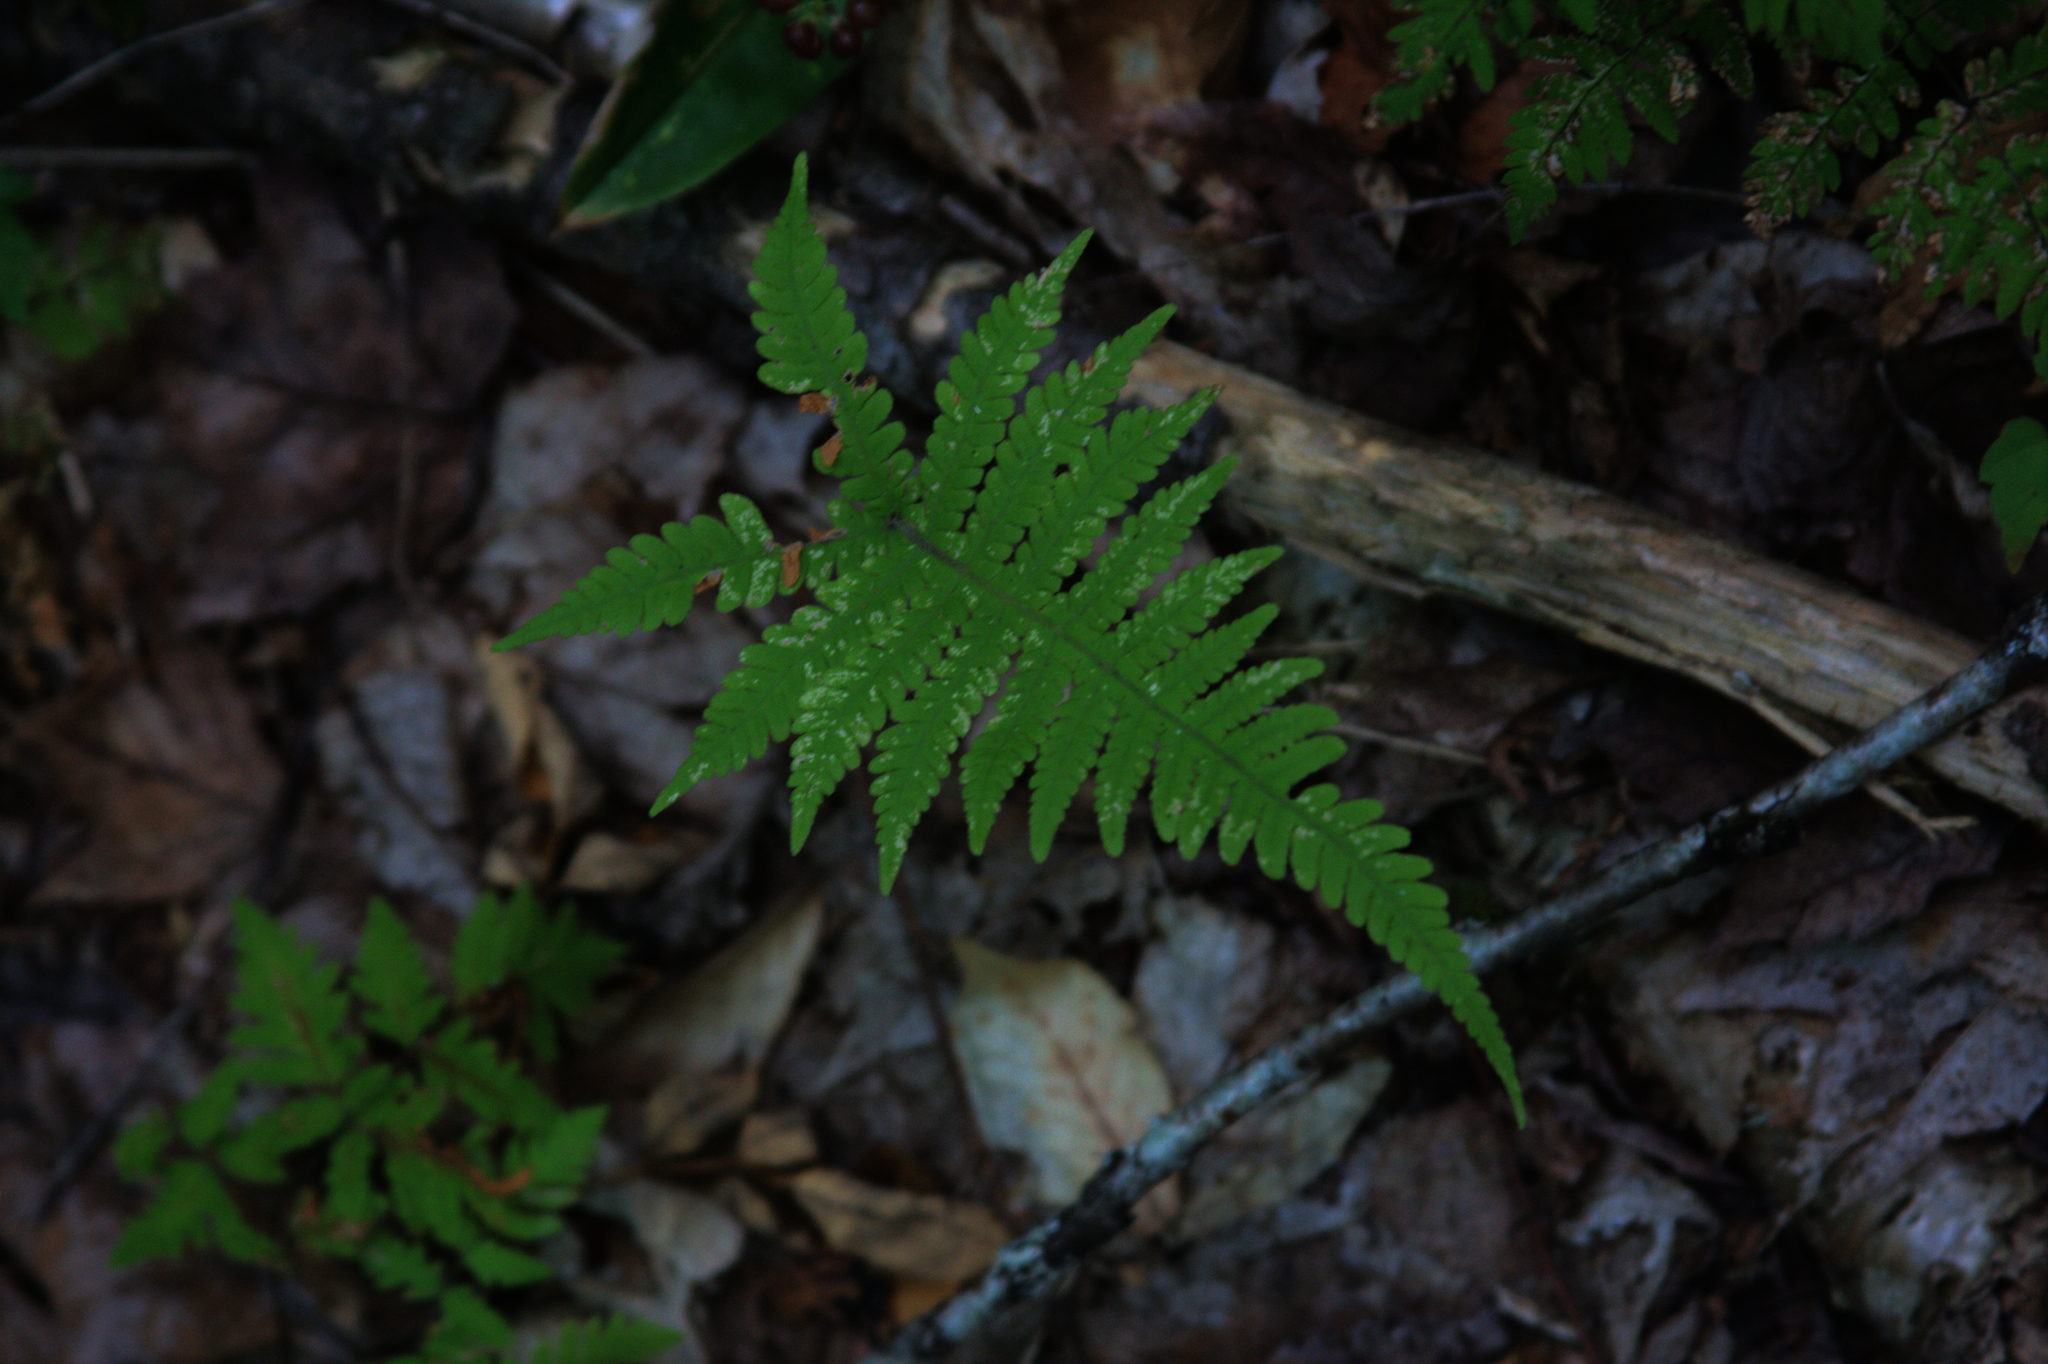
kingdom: Plantae
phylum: Tracheophyta
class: Polypodiopsida
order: Polypodiales
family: Thelypteridaceae
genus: Phegopteris
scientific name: Phegopteris connectilis
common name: Beech fern
